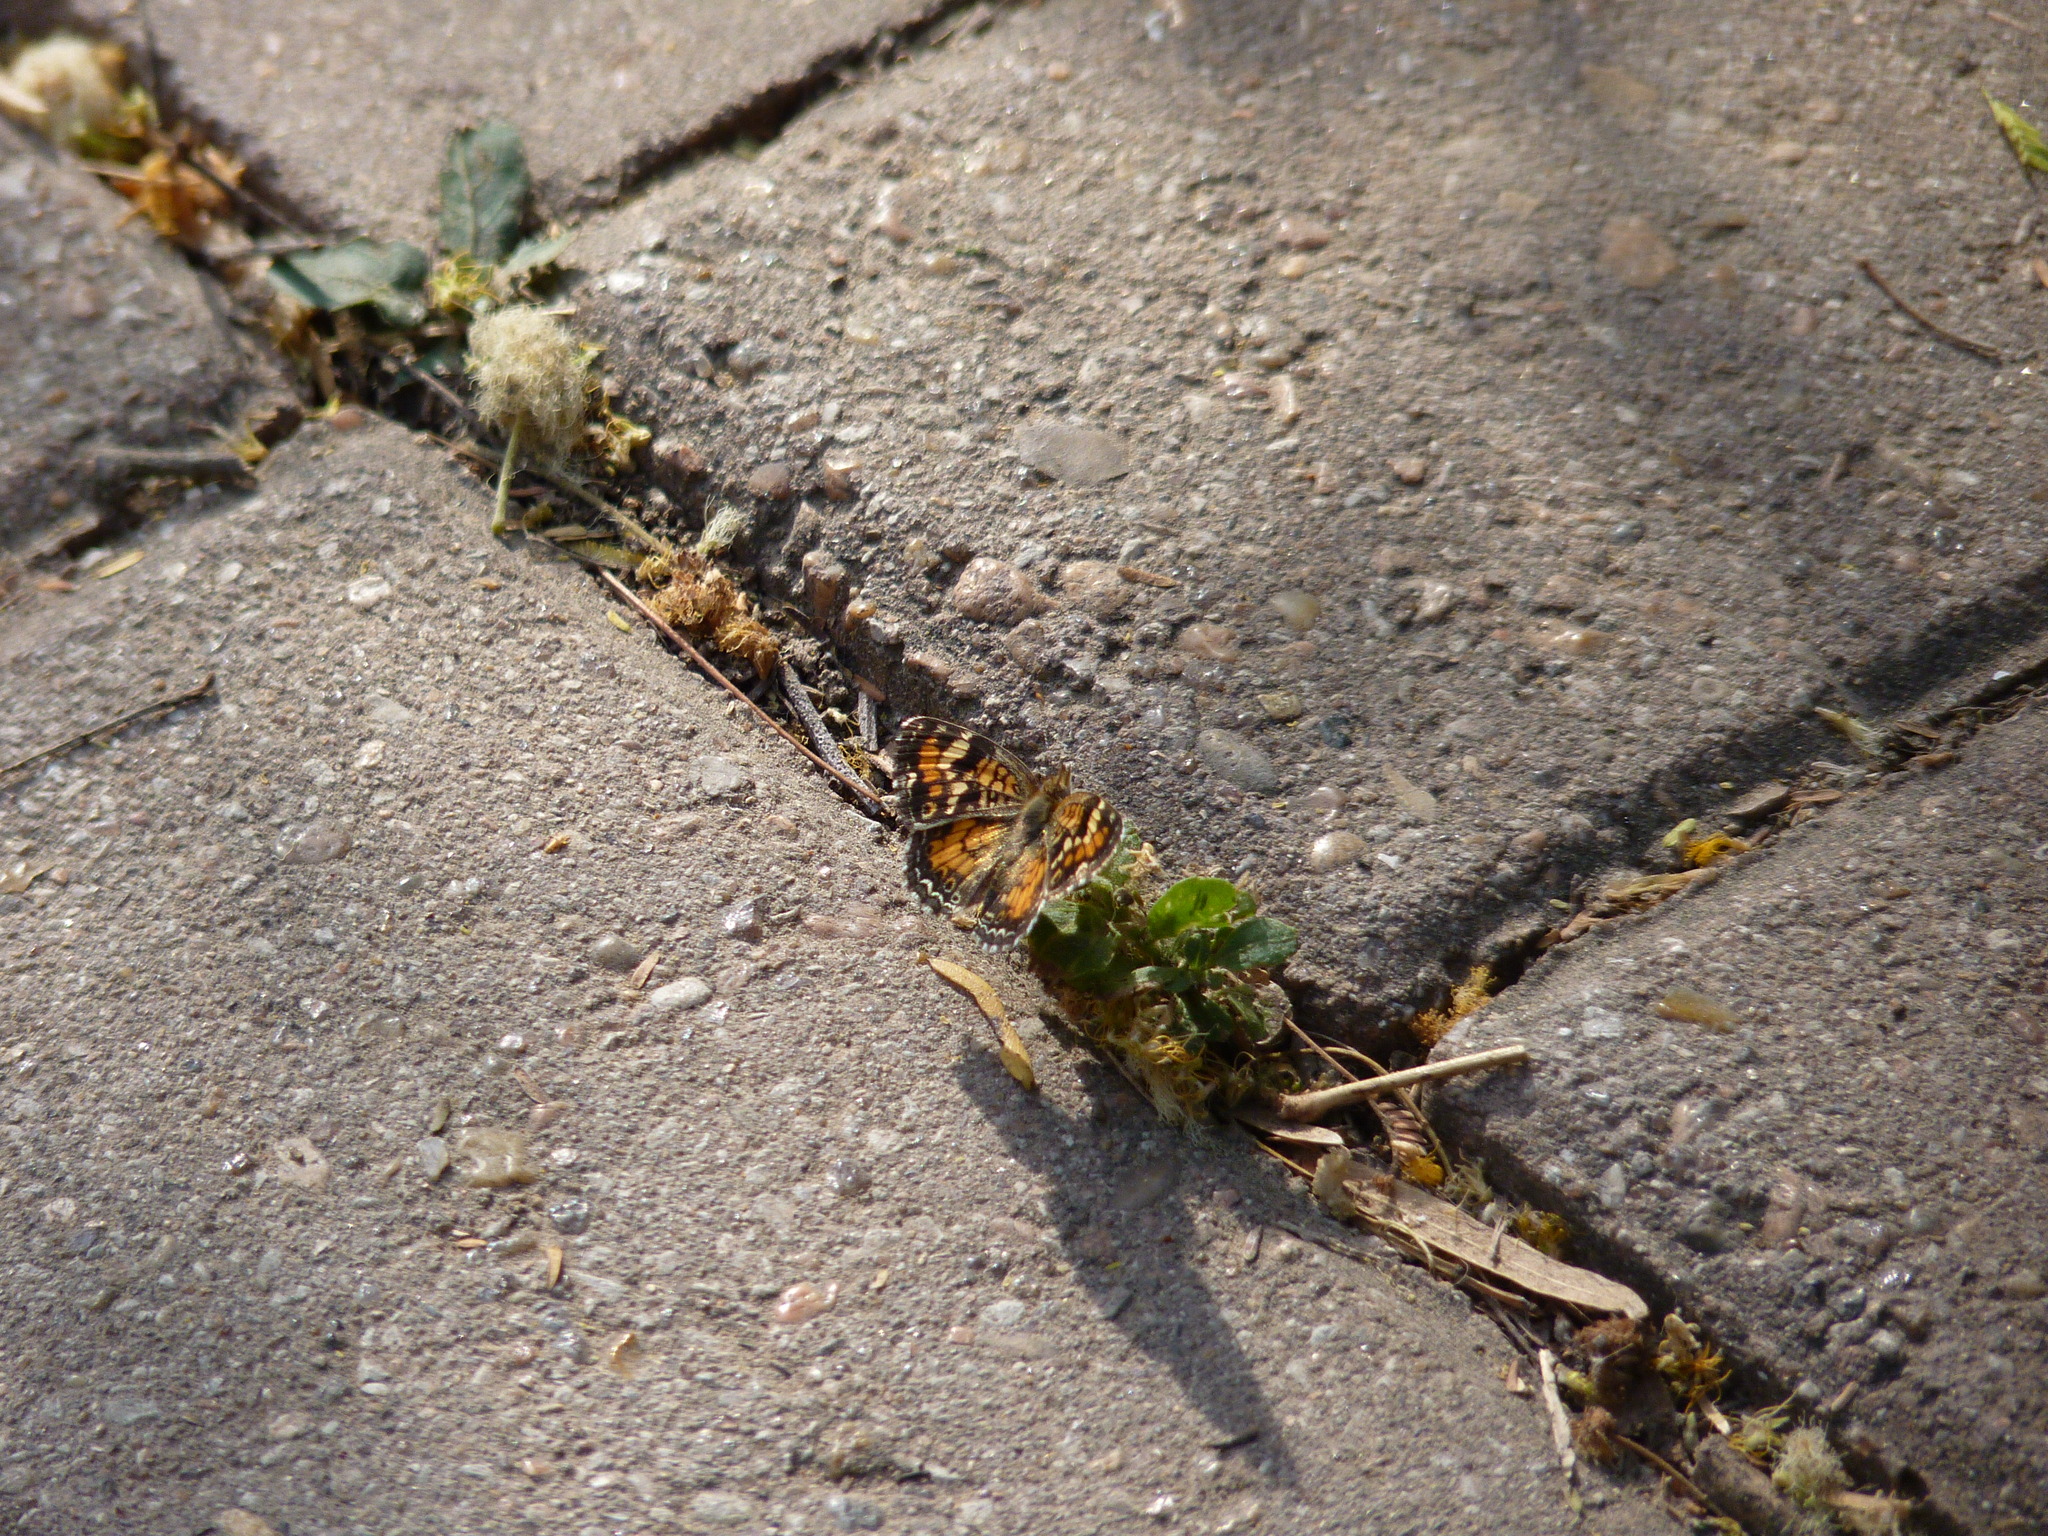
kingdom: Animalia
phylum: Arthropoda
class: Insecta
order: Lepidoptera
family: Nymphalidae
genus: Phyciodes
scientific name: Phyciodes phaon
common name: Phaon crescent
